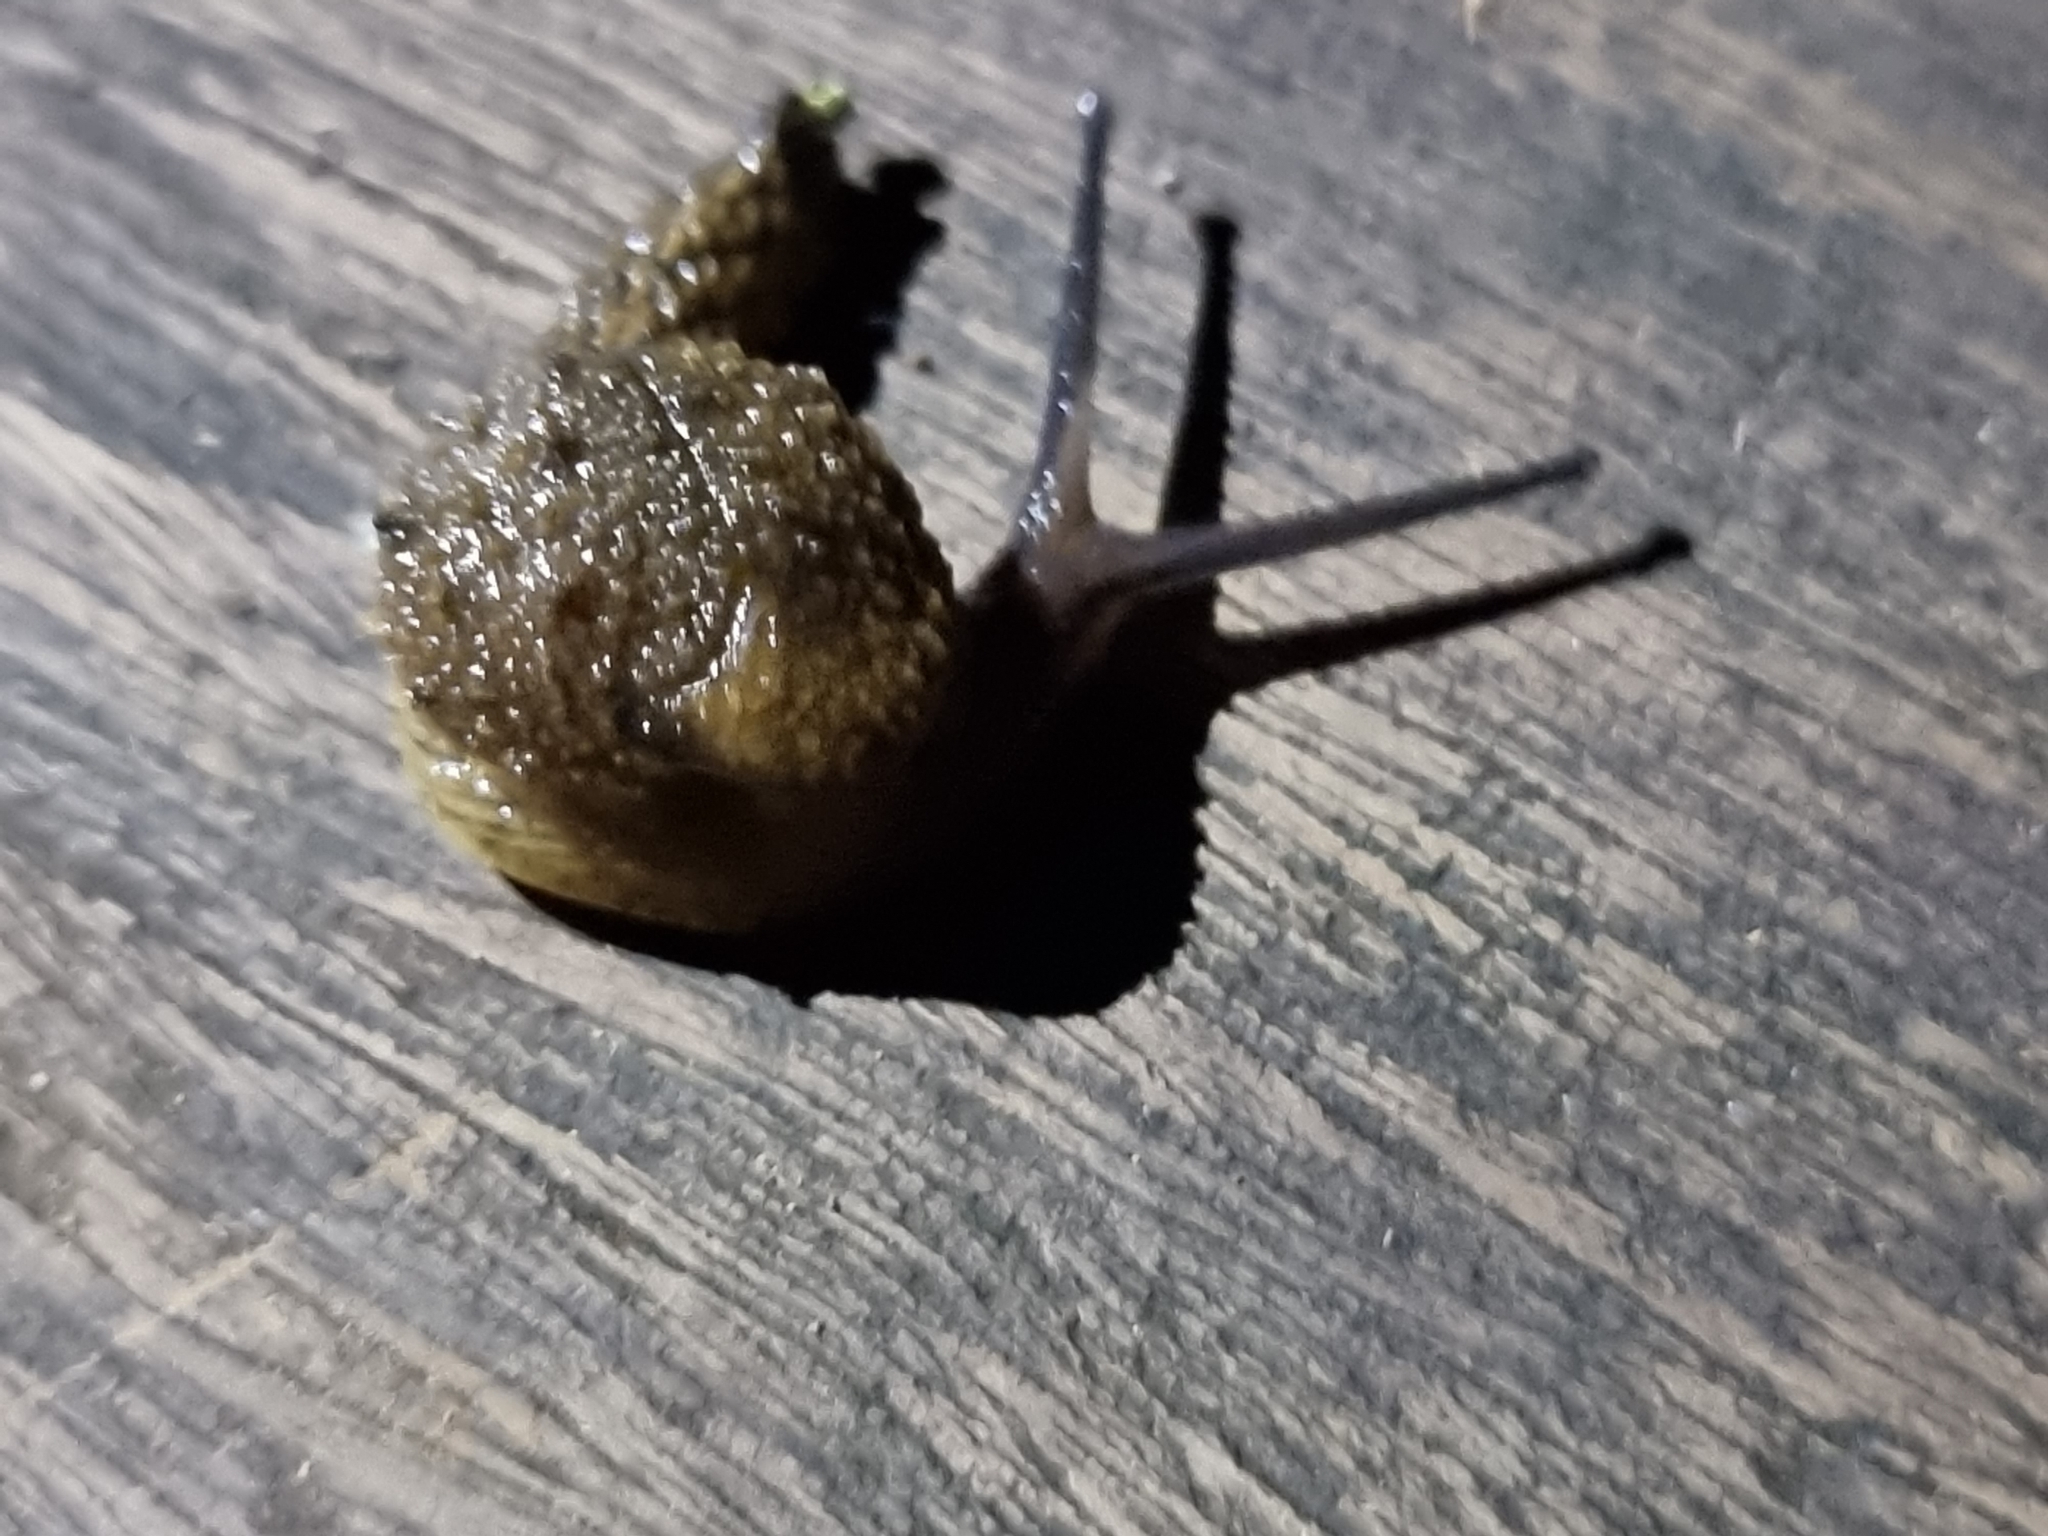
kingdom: Animalia
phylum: Mollusca
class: Gastropoda
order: Stylommatophora
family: Helicarionidae
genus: Stanisicarion
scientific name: Stanisicarion aquila
